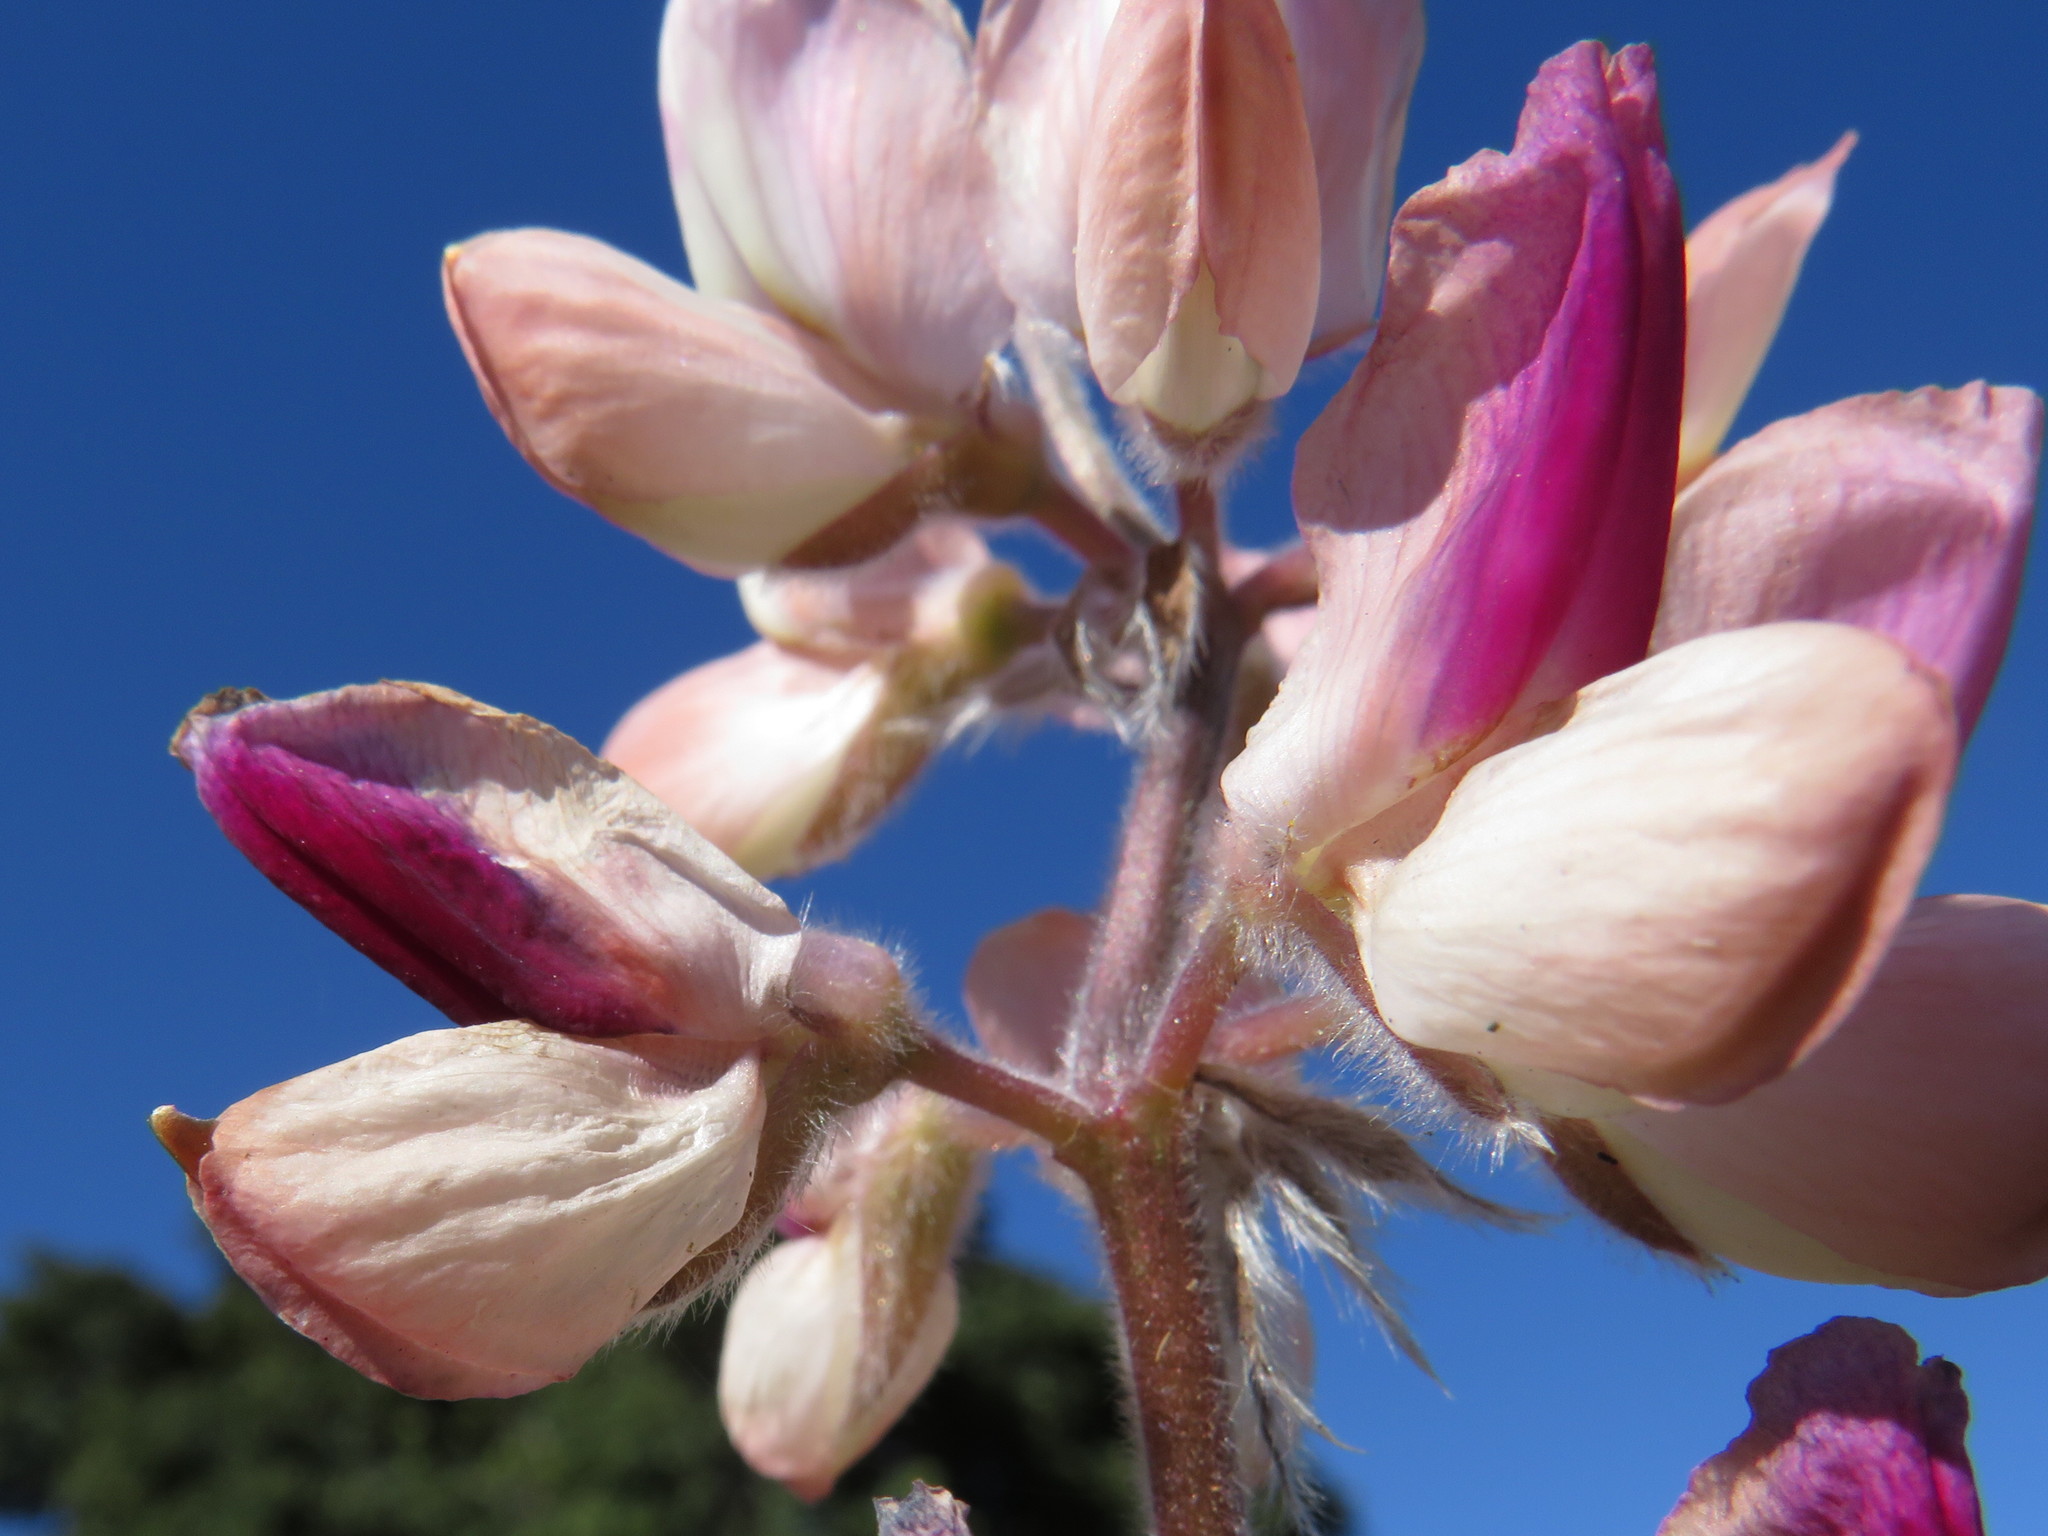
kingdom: Plantae
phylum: Tracheophyta
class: Magnoliopsida
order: Fabales
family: Fabaceae
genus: Lupinus
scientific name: Lupinus pilosus
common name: Blue lupine
